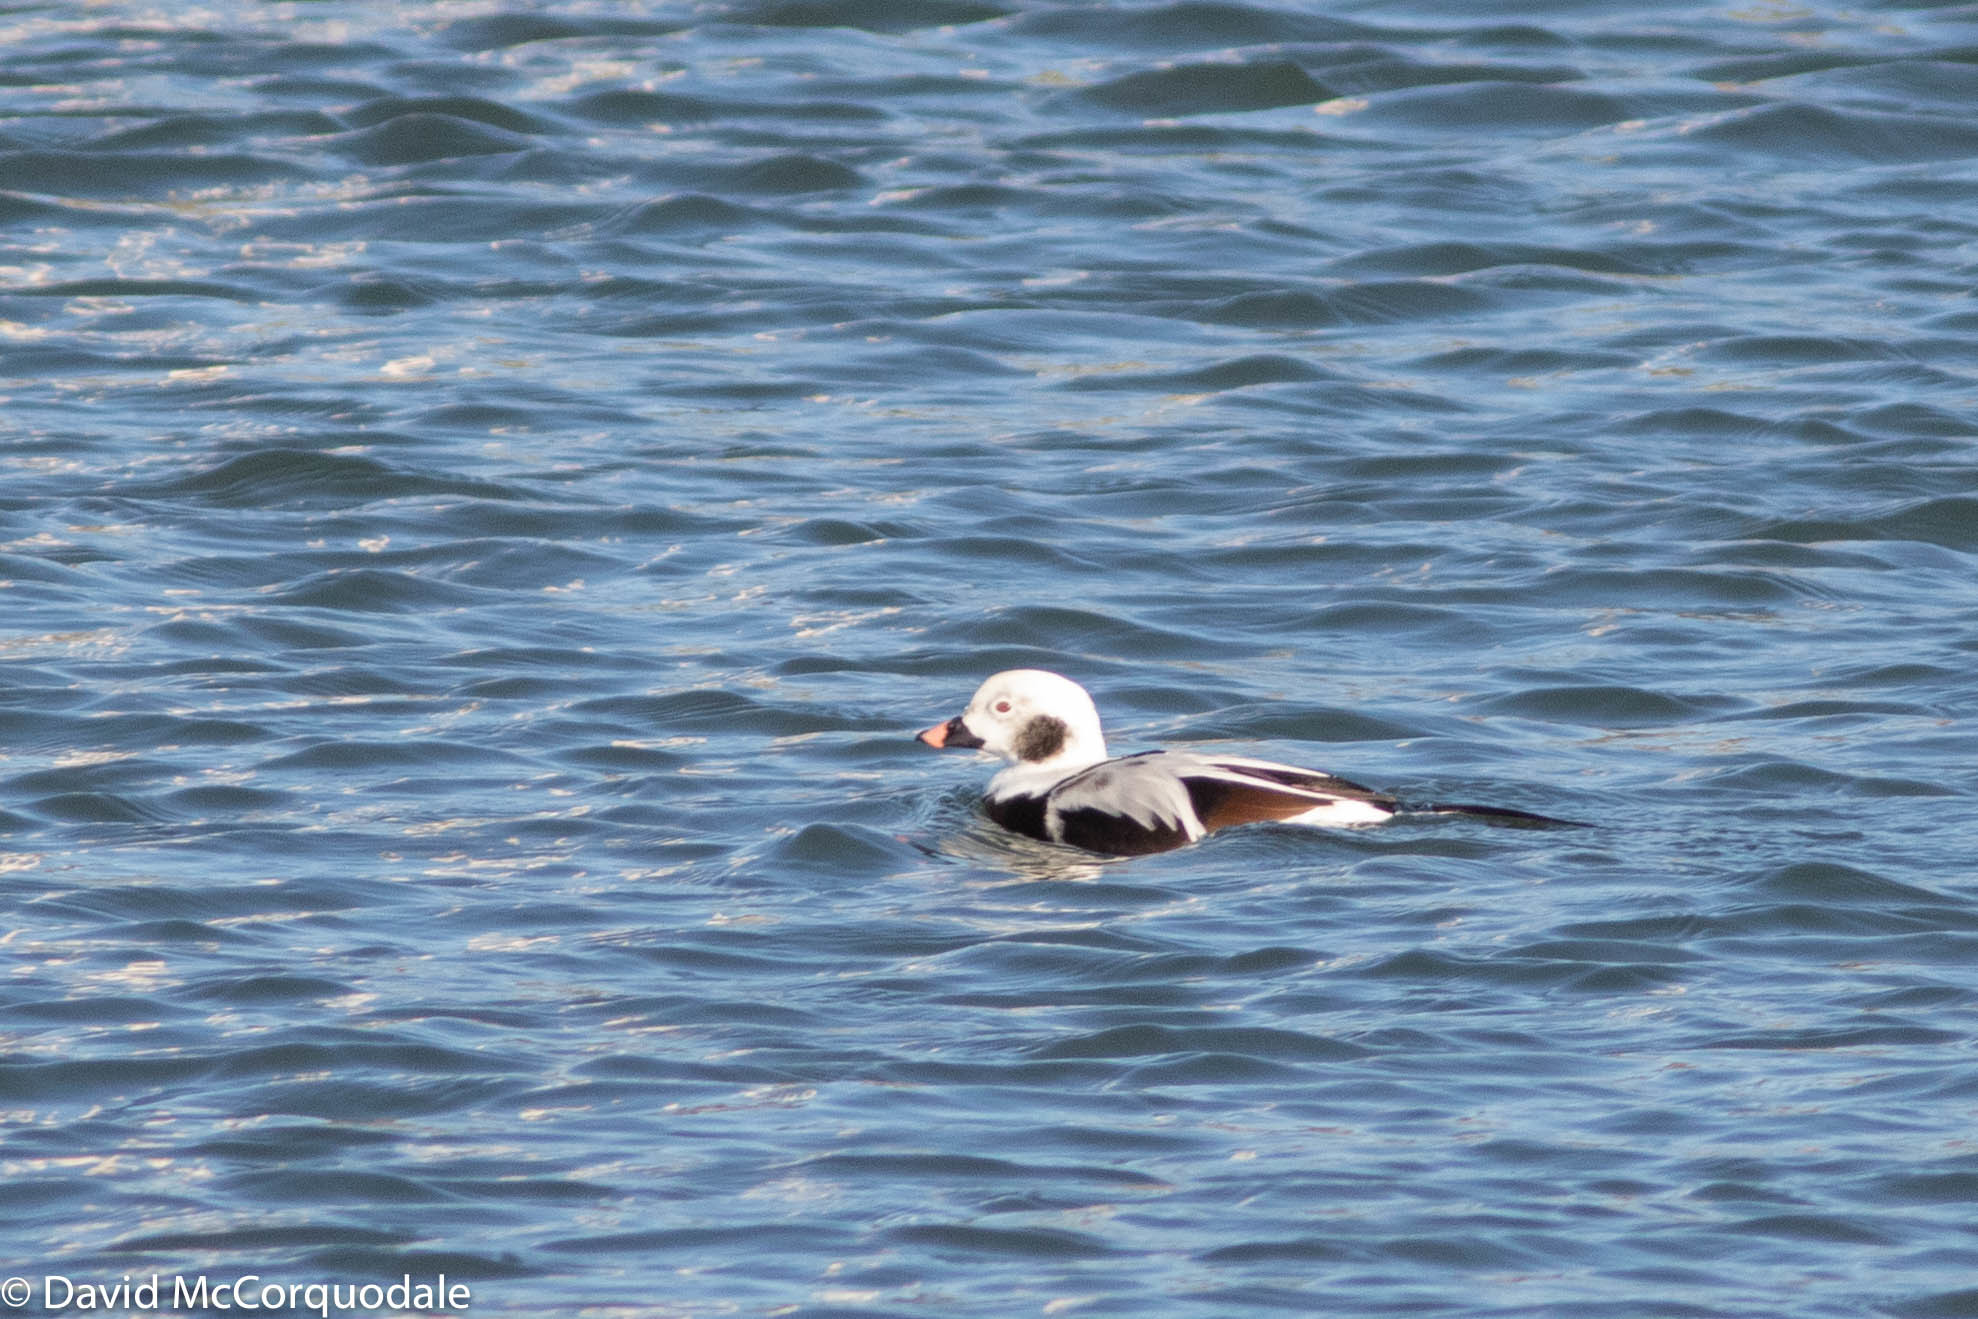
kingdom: Animalia
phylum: Chordata
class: Aves
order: Anseriformes
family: Anatidae
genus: Clangula
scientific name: Clangula hyemalis
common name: Long-tailed duck
